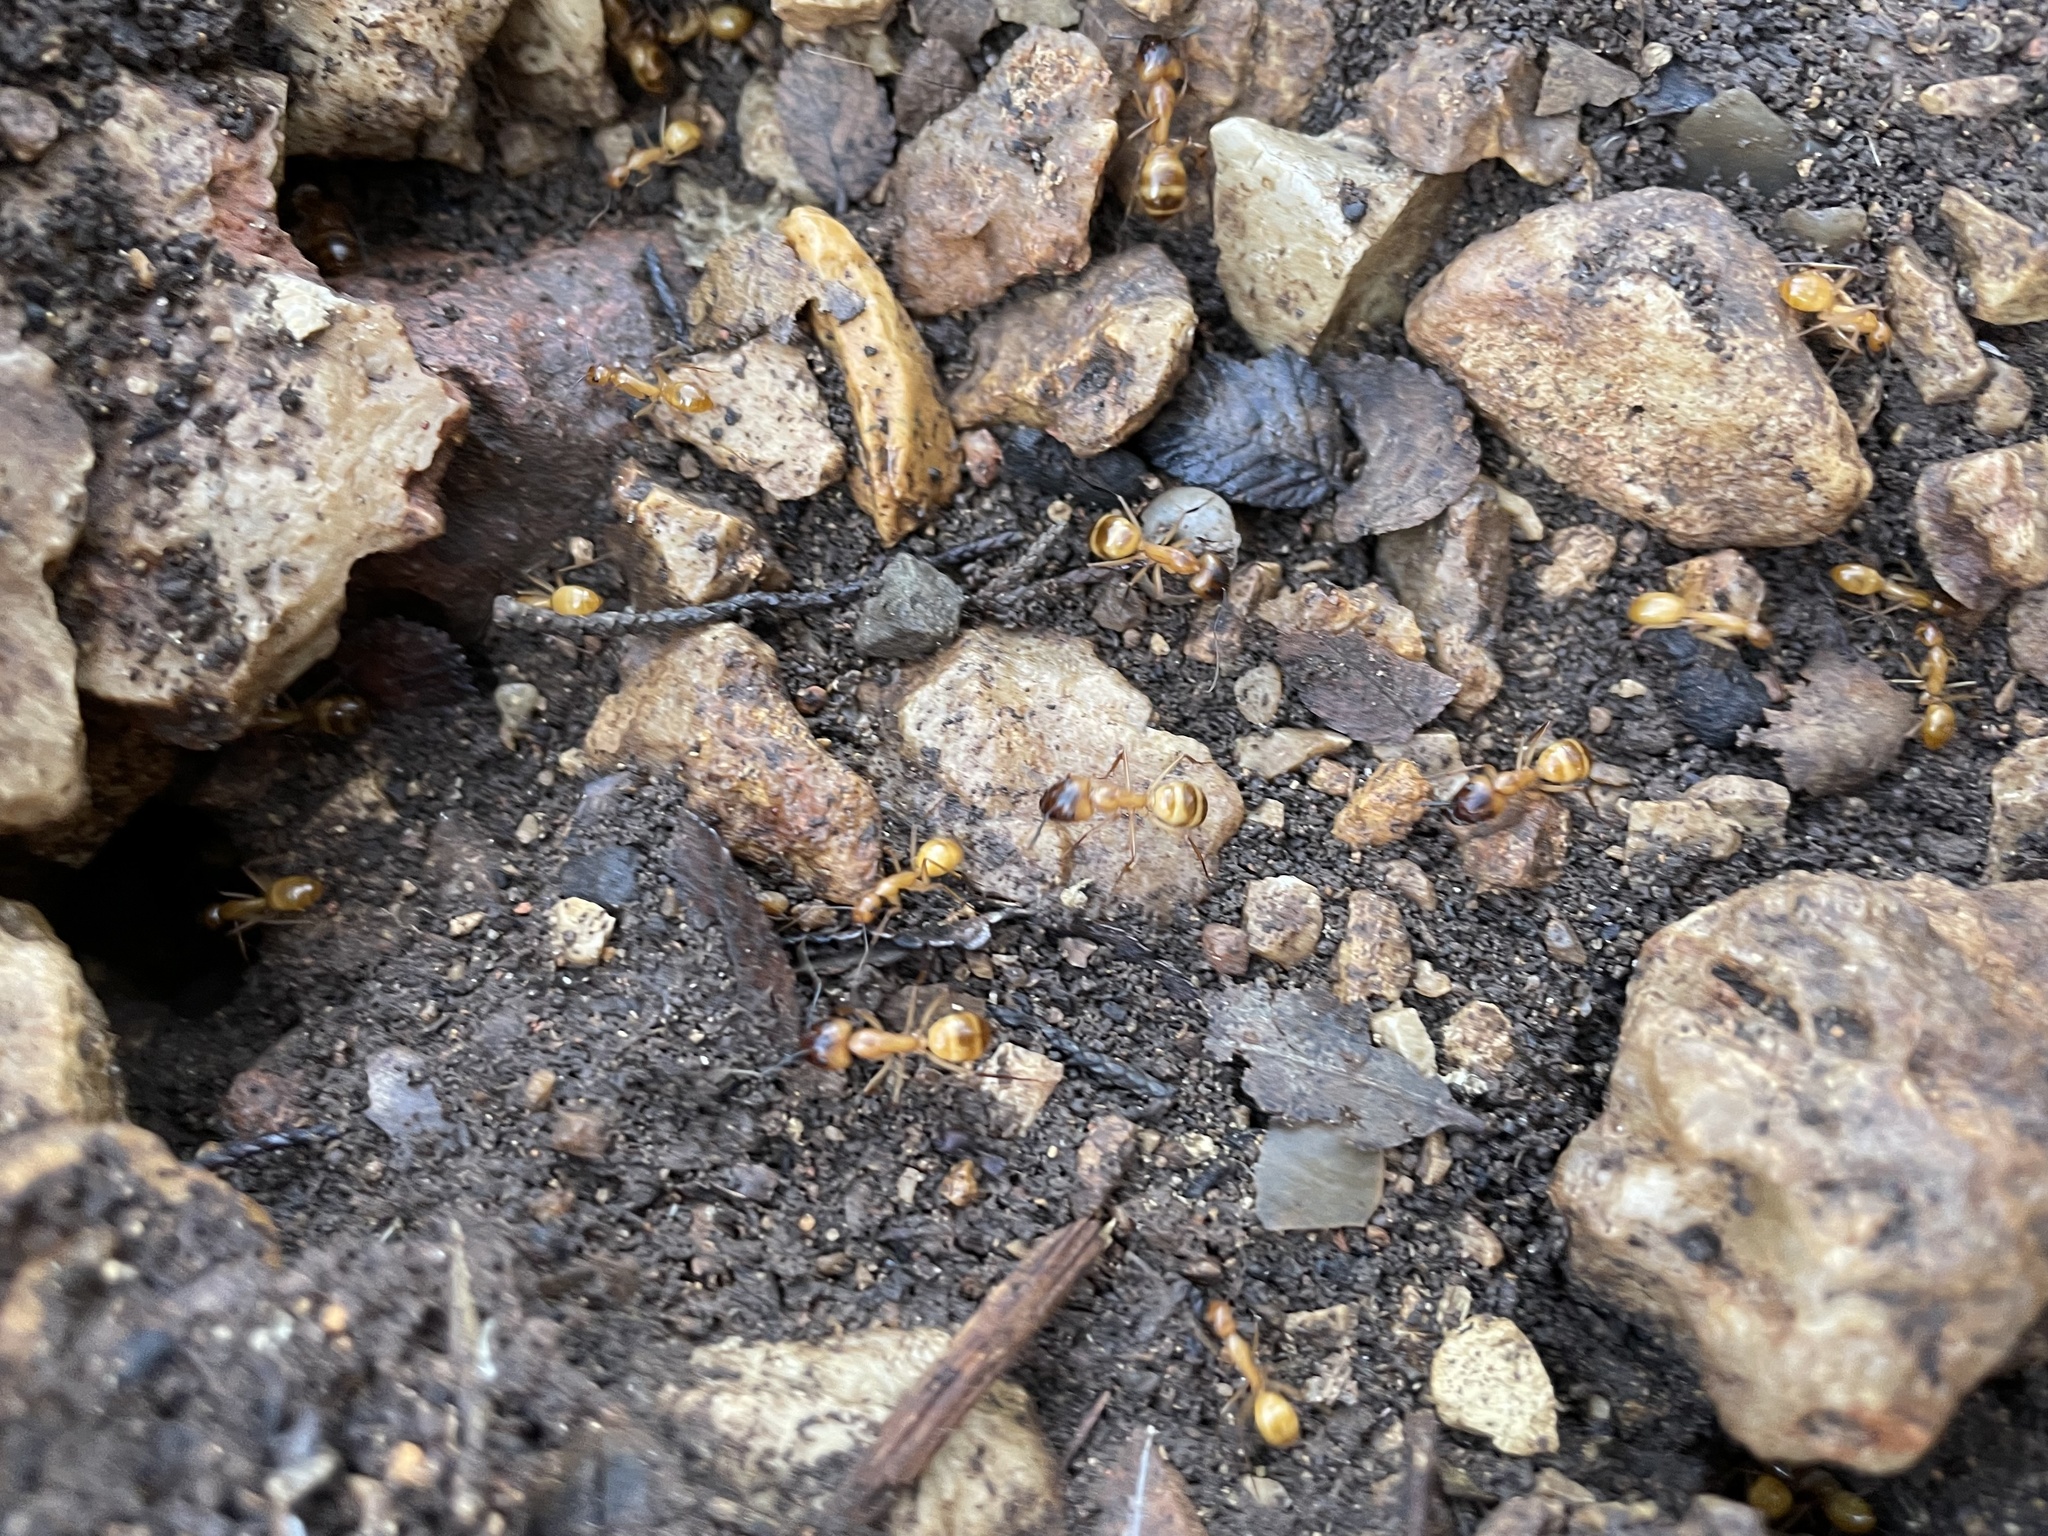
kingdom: Animalia
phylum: Arthropoda
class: Insecta
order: Hymenoptera
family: Formicidae
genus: Camponotus
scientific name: Camponotus festinatus
